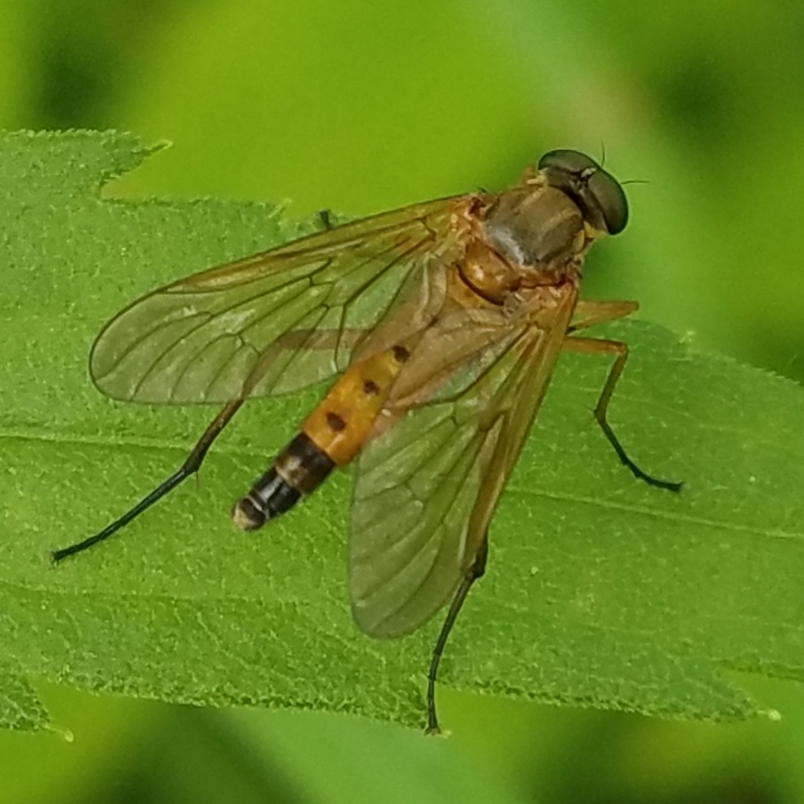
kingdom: Animalia
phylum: Arthropoda
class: Insecta
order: Diptera
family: Rhagionidae
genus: Rhagio
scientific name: Rhagio tringaria
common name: Marsh snipefly
